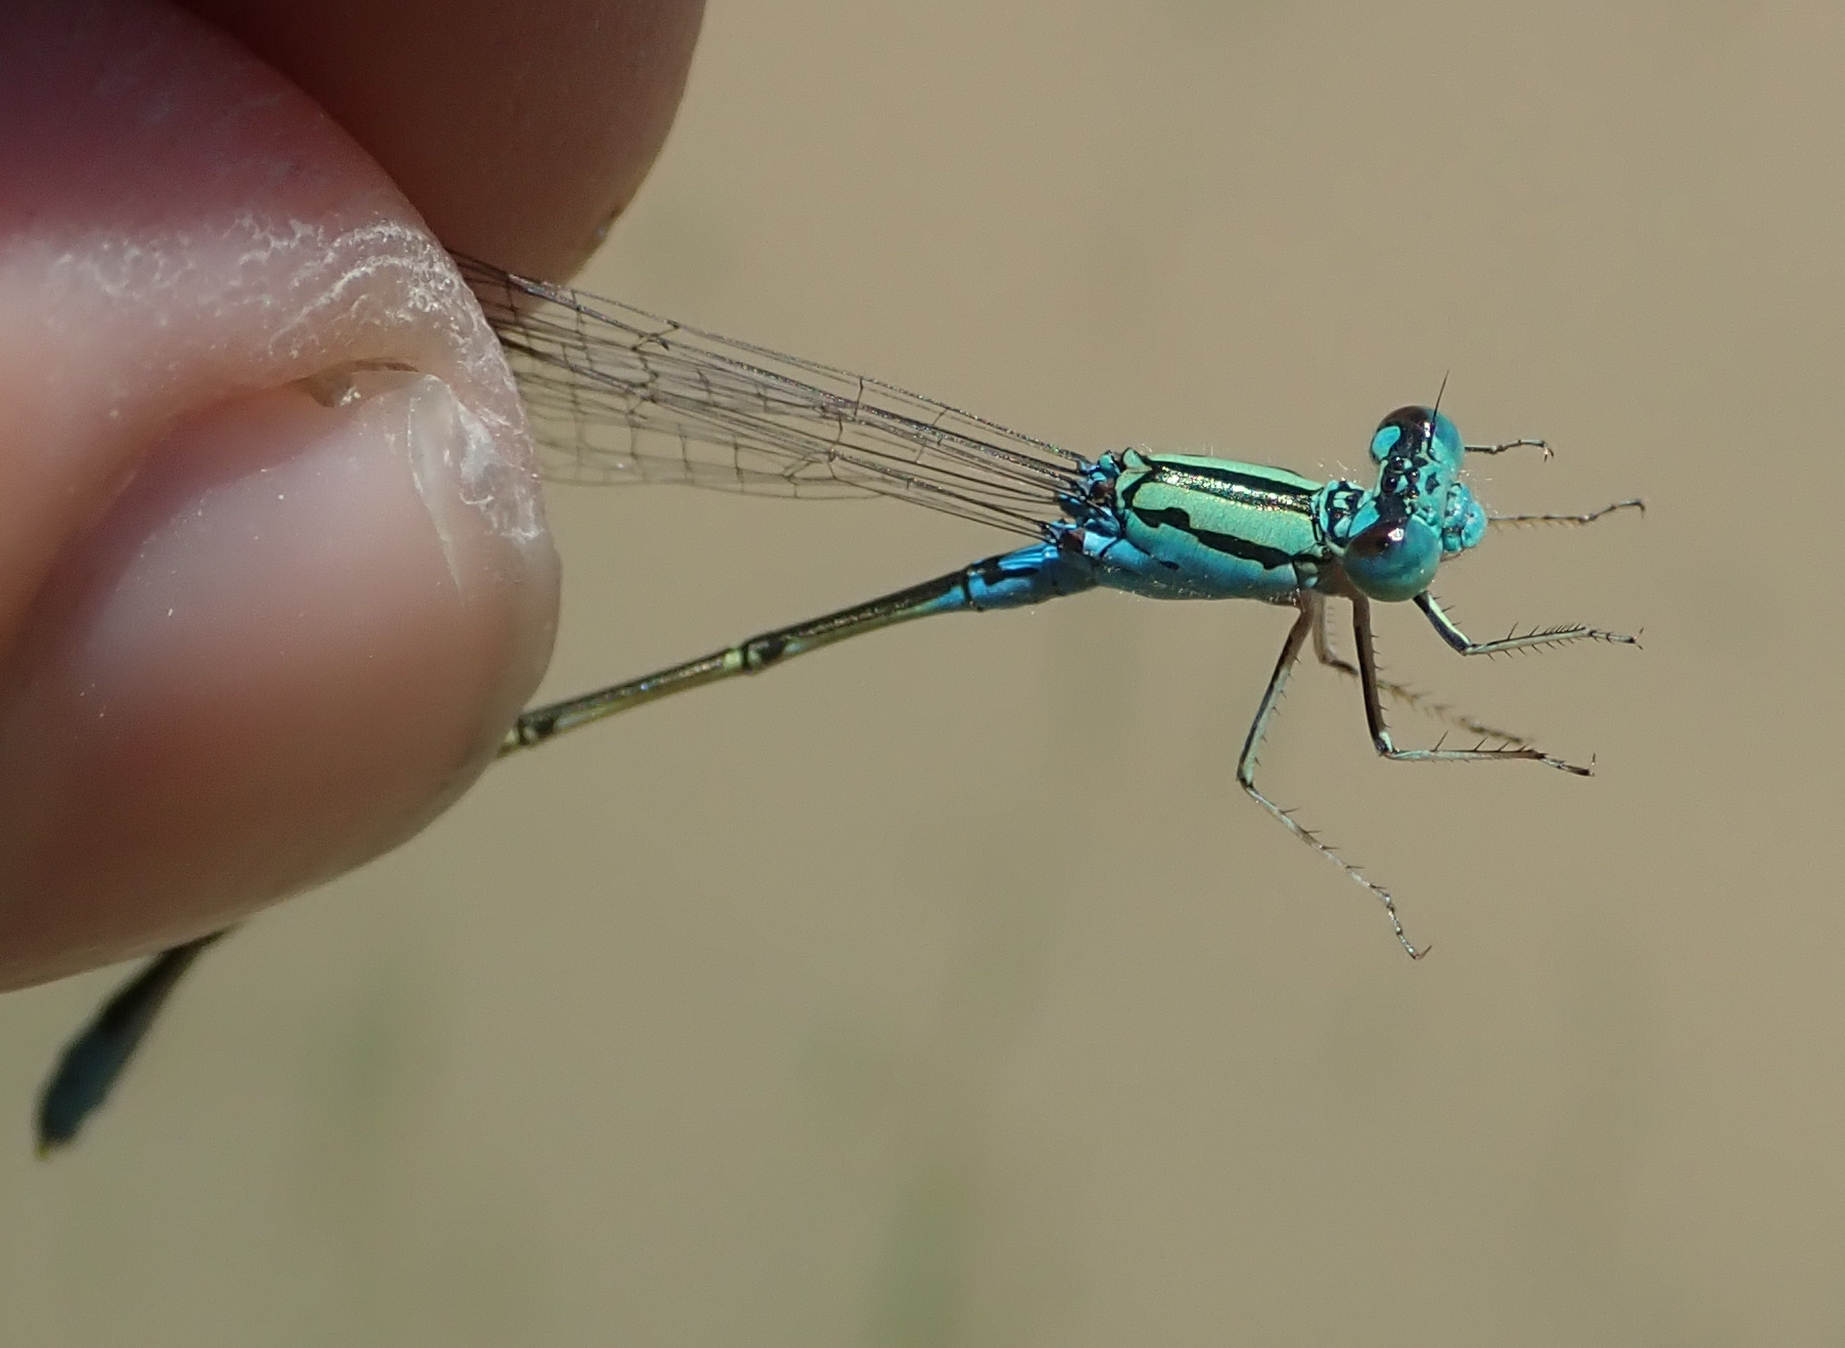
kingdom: Animalia
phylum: Arthropoda
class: Insecta
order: Odonata
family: Coenagrionidae
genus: Pseudagrion
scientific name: Pseudagrion coeleste
